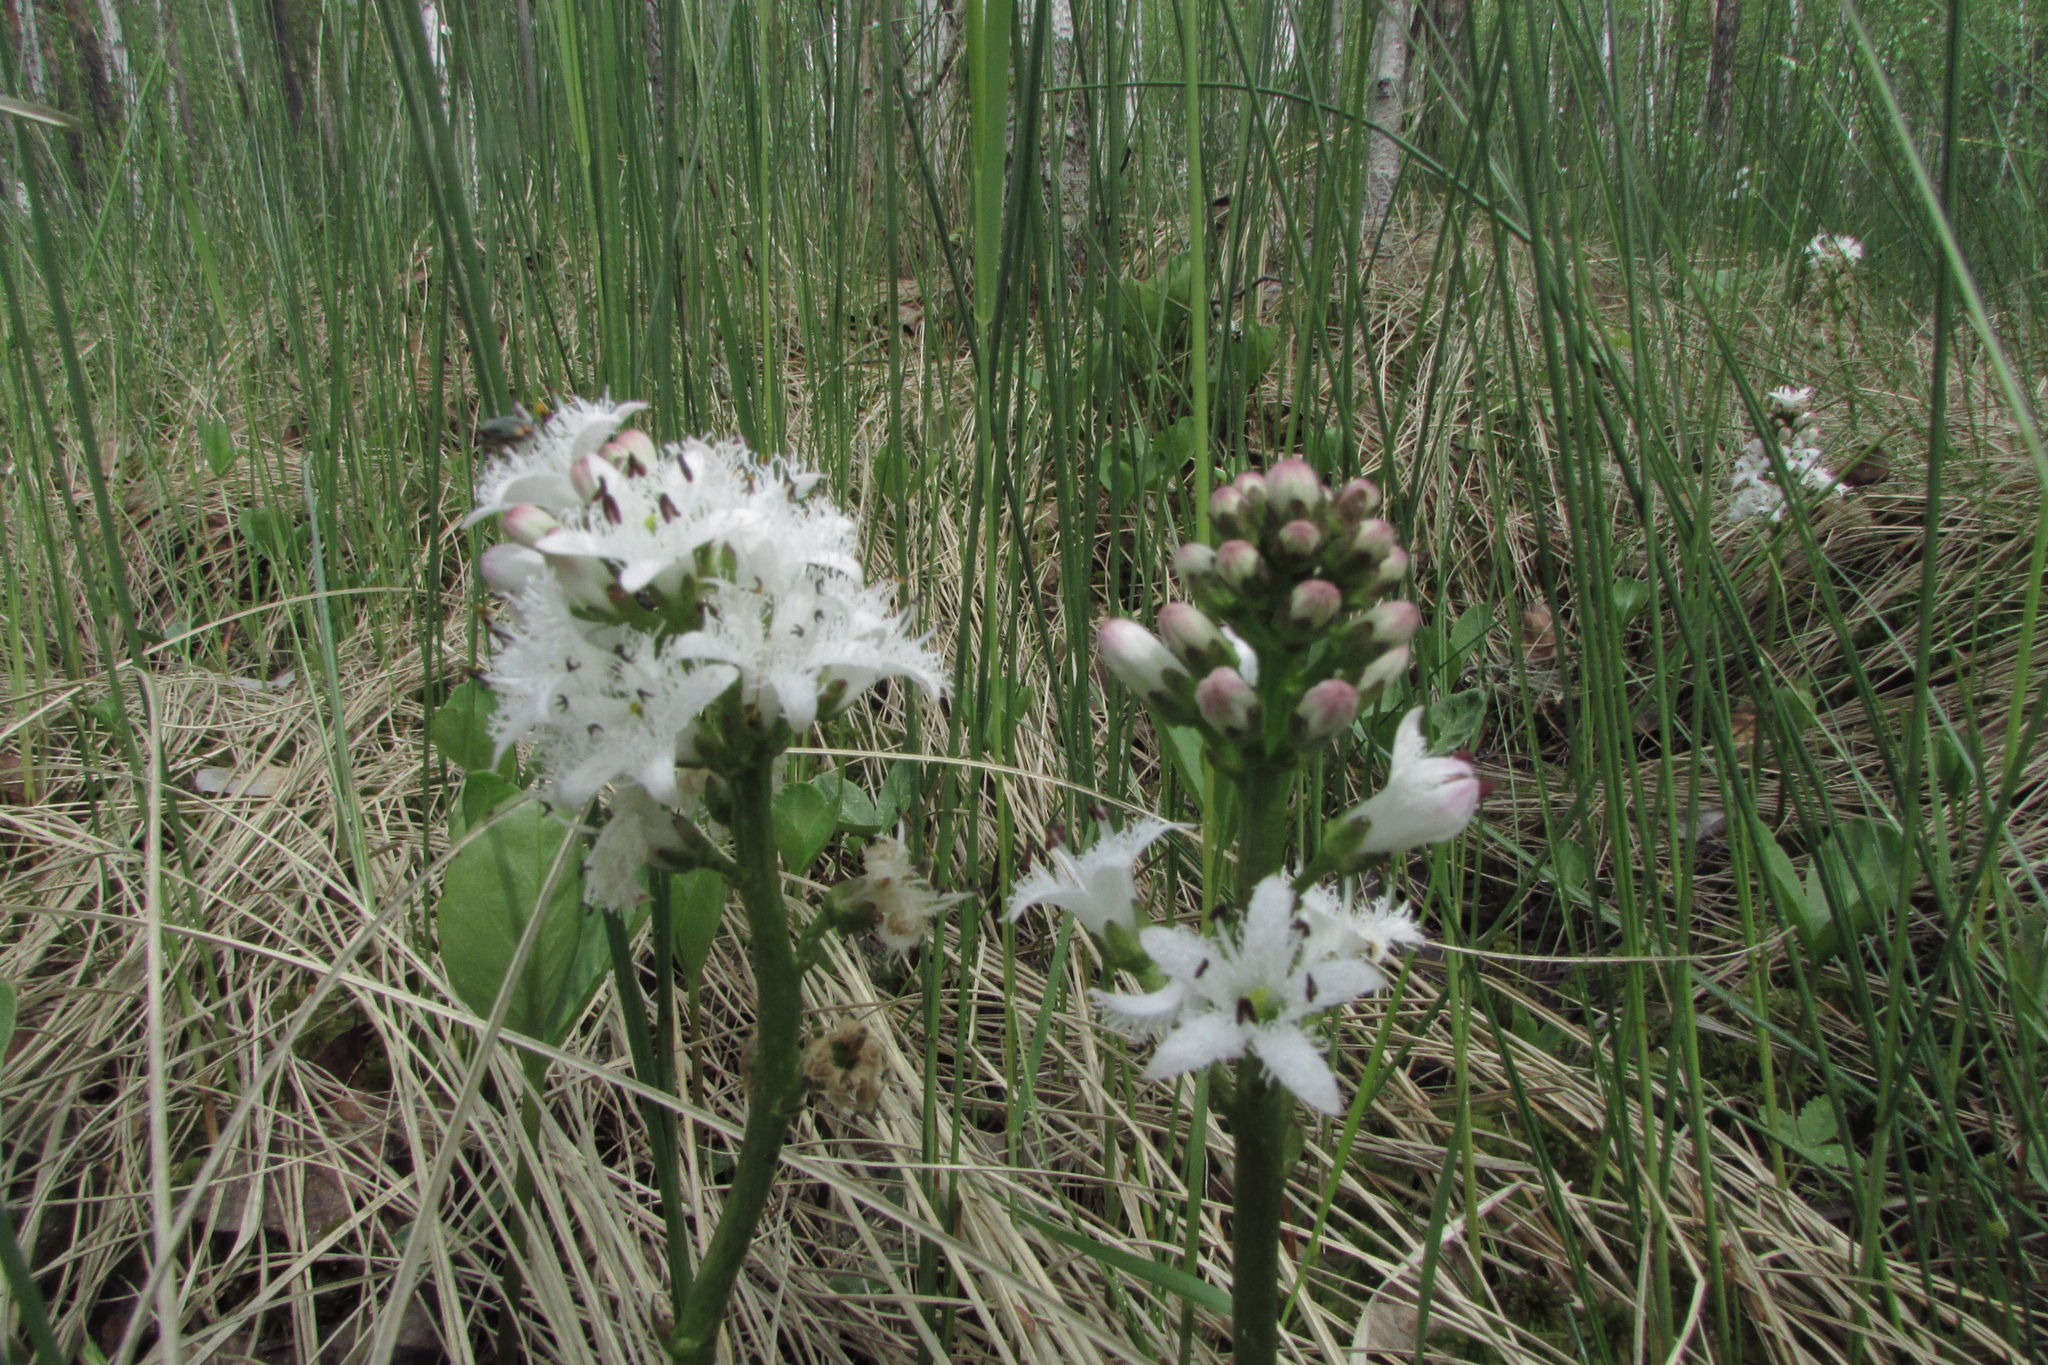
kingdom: Plantae
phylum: Tracheophyta
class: Magnoliopsida
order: Asterales
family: Menyanthaceae
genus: Menyanthes
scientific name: Menyanthes trifoliata
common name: Bogbean
